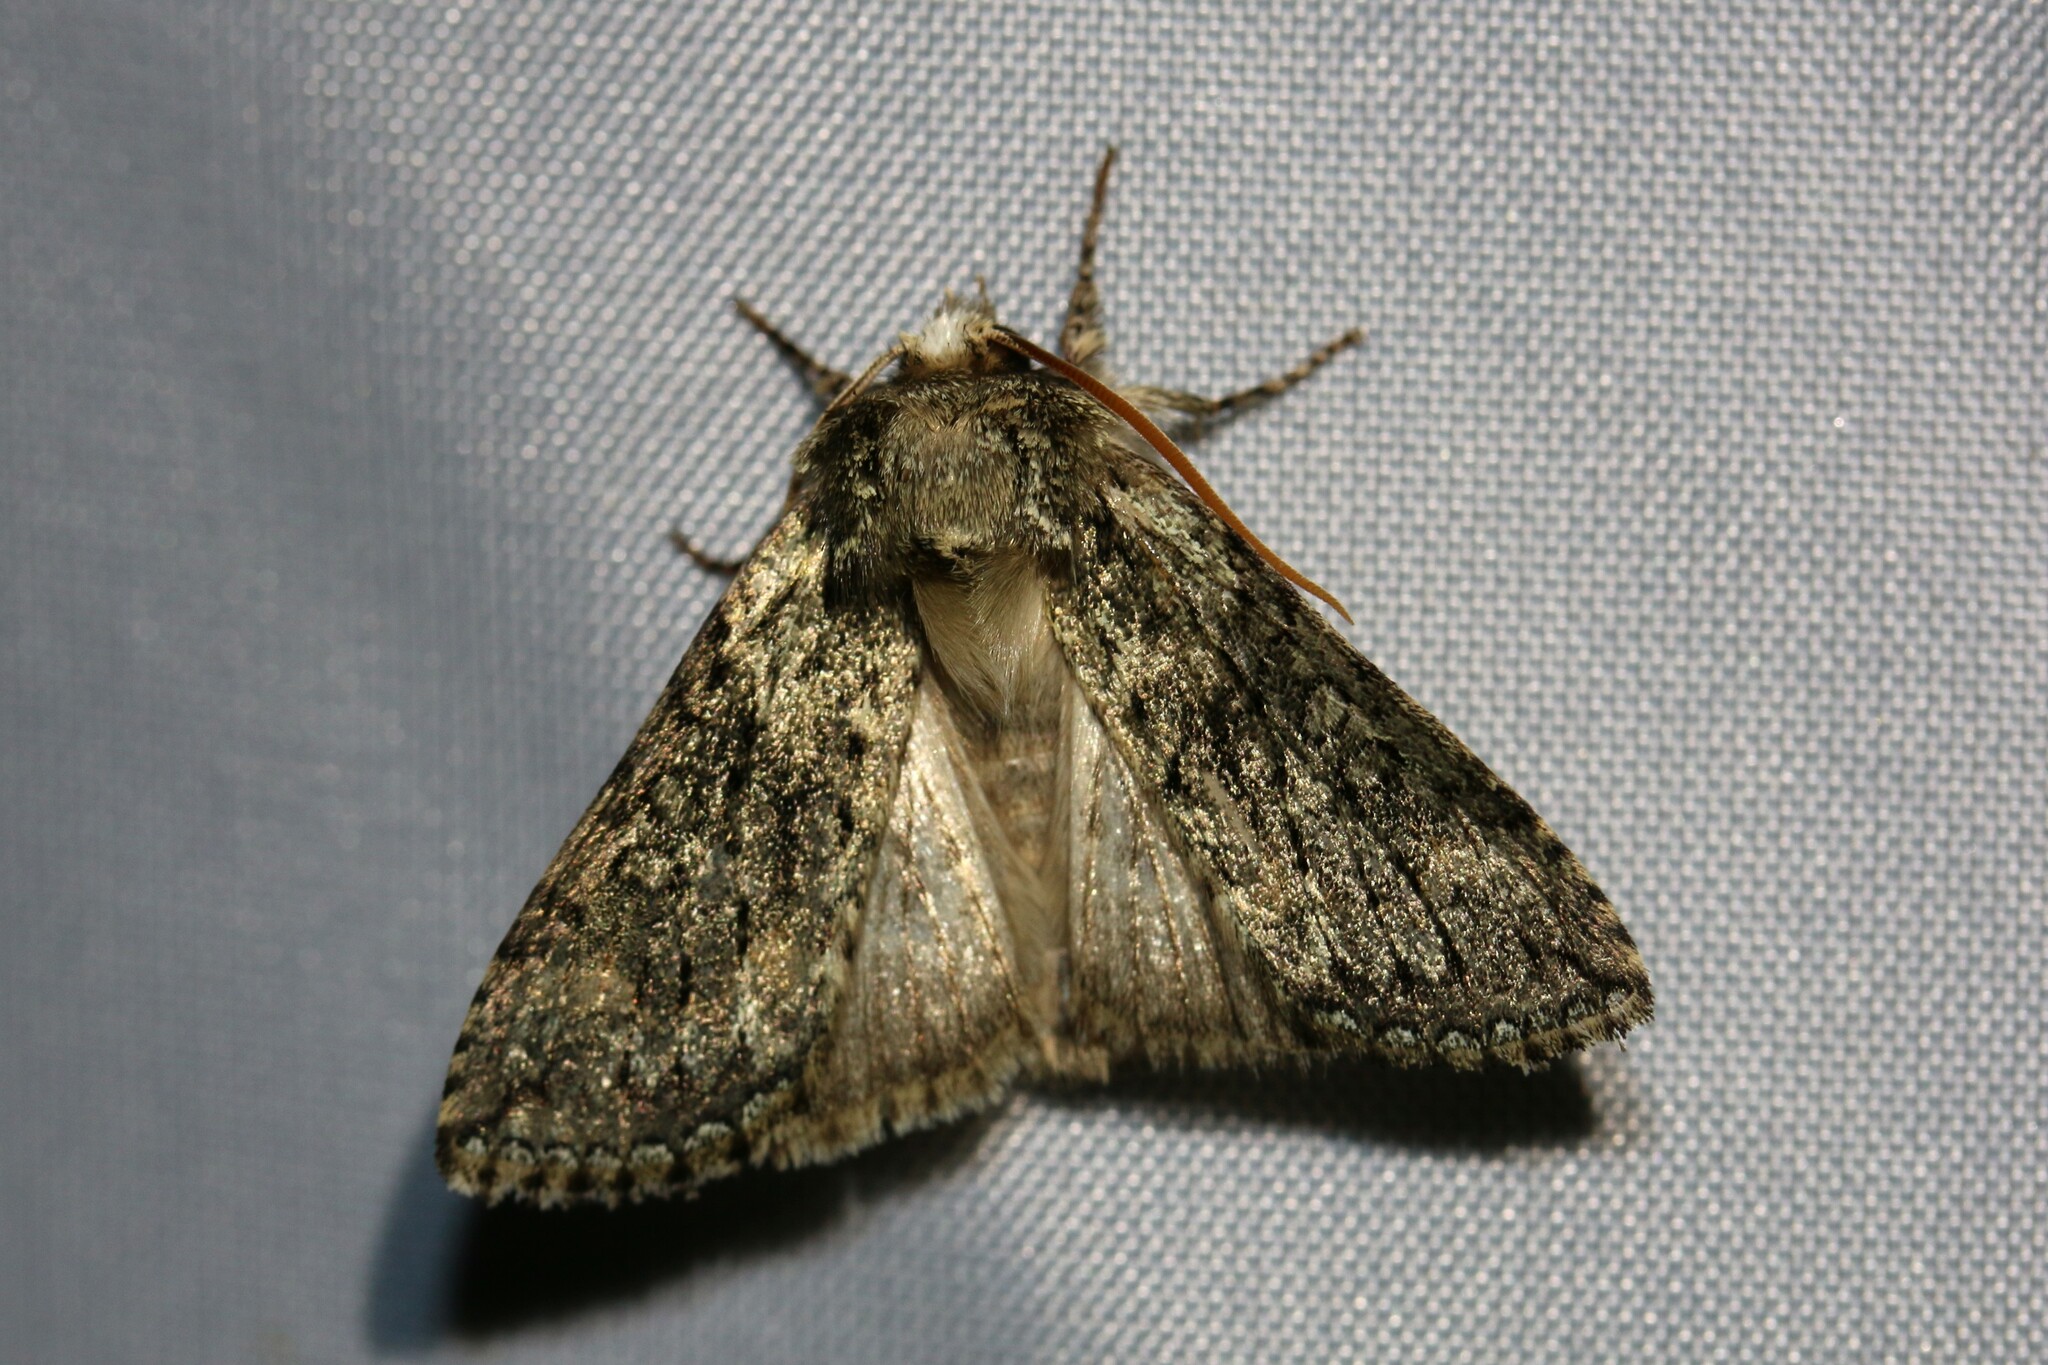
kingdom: Animalia
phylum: Arthropoda
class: Insecta
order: Lepidoptera
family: Drepanidae
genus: Polyploca
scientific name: Polyploca ridens
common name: Frosted green
